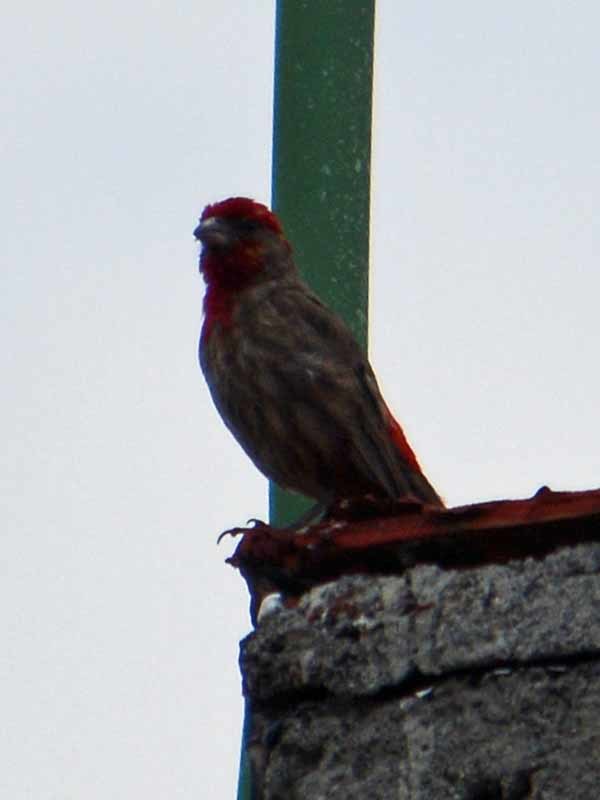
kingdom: Animalia
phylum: Chordata
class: Aves
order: Passeriformes
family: Fringillidae
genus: Haemorhous
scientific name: Haemorhous mexicanus
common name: House finch
